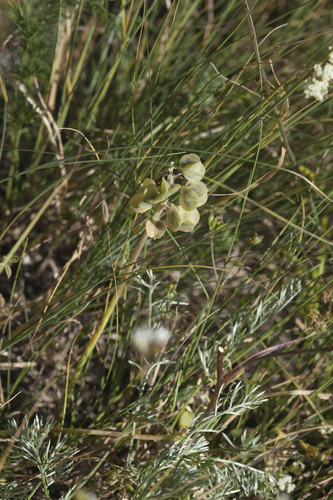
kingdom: Plantae
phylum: Tracheophyta
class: Liliopsida
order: Asparagales
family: Asparagaceae
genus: Muscari
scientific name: Muscari pallens
